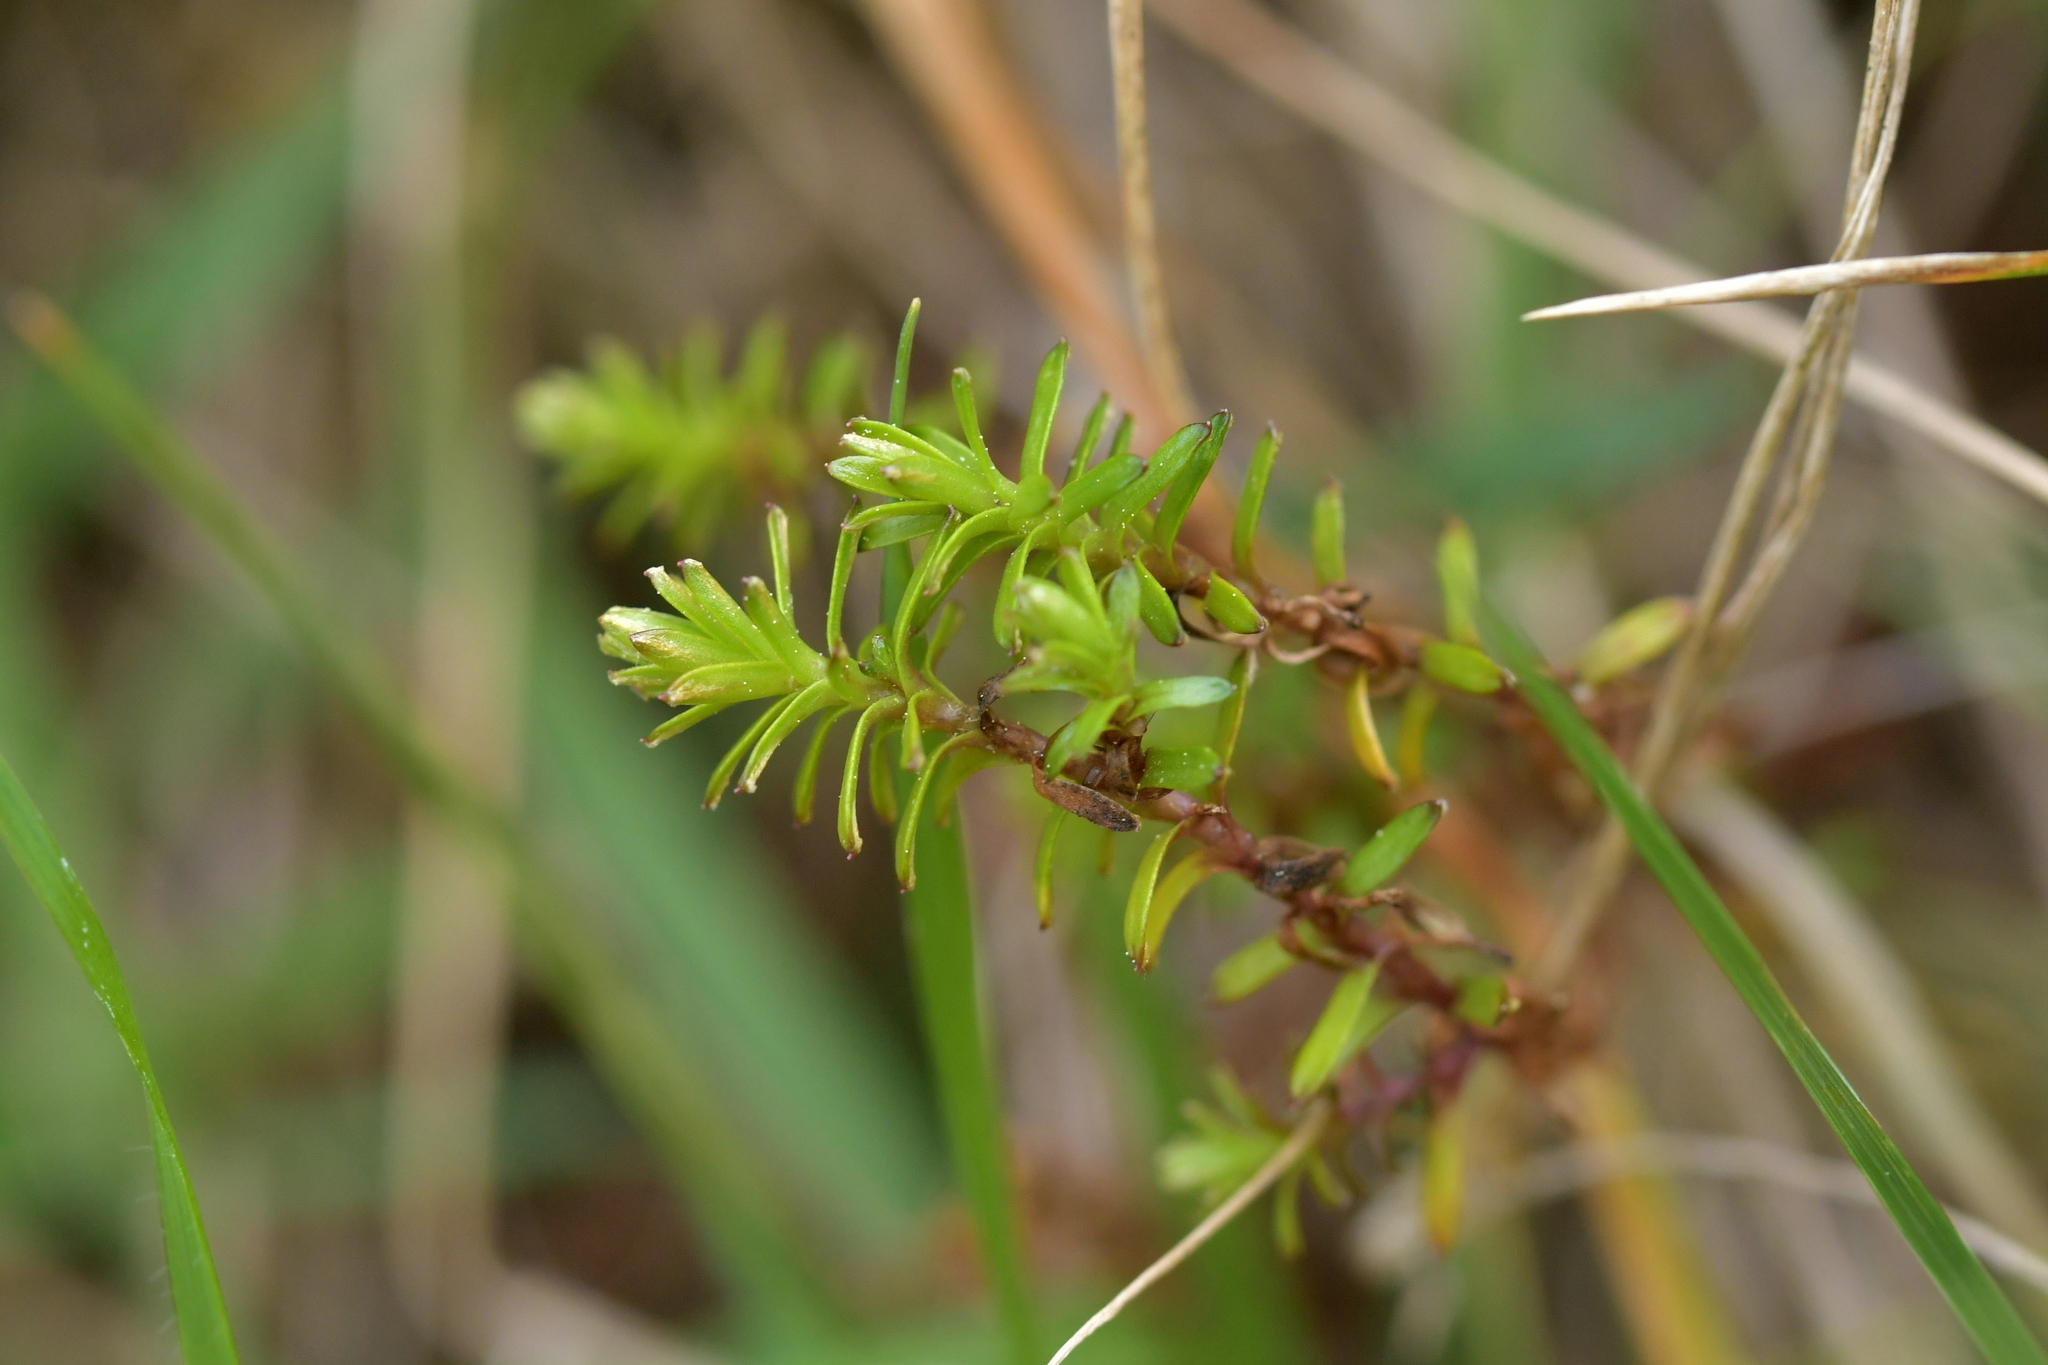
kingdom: Plantae
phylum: Tracheophyta
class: Magnoliopsida
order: Asterales
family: Asteraceae
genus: Raoulia
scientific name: Raoulia glabra
